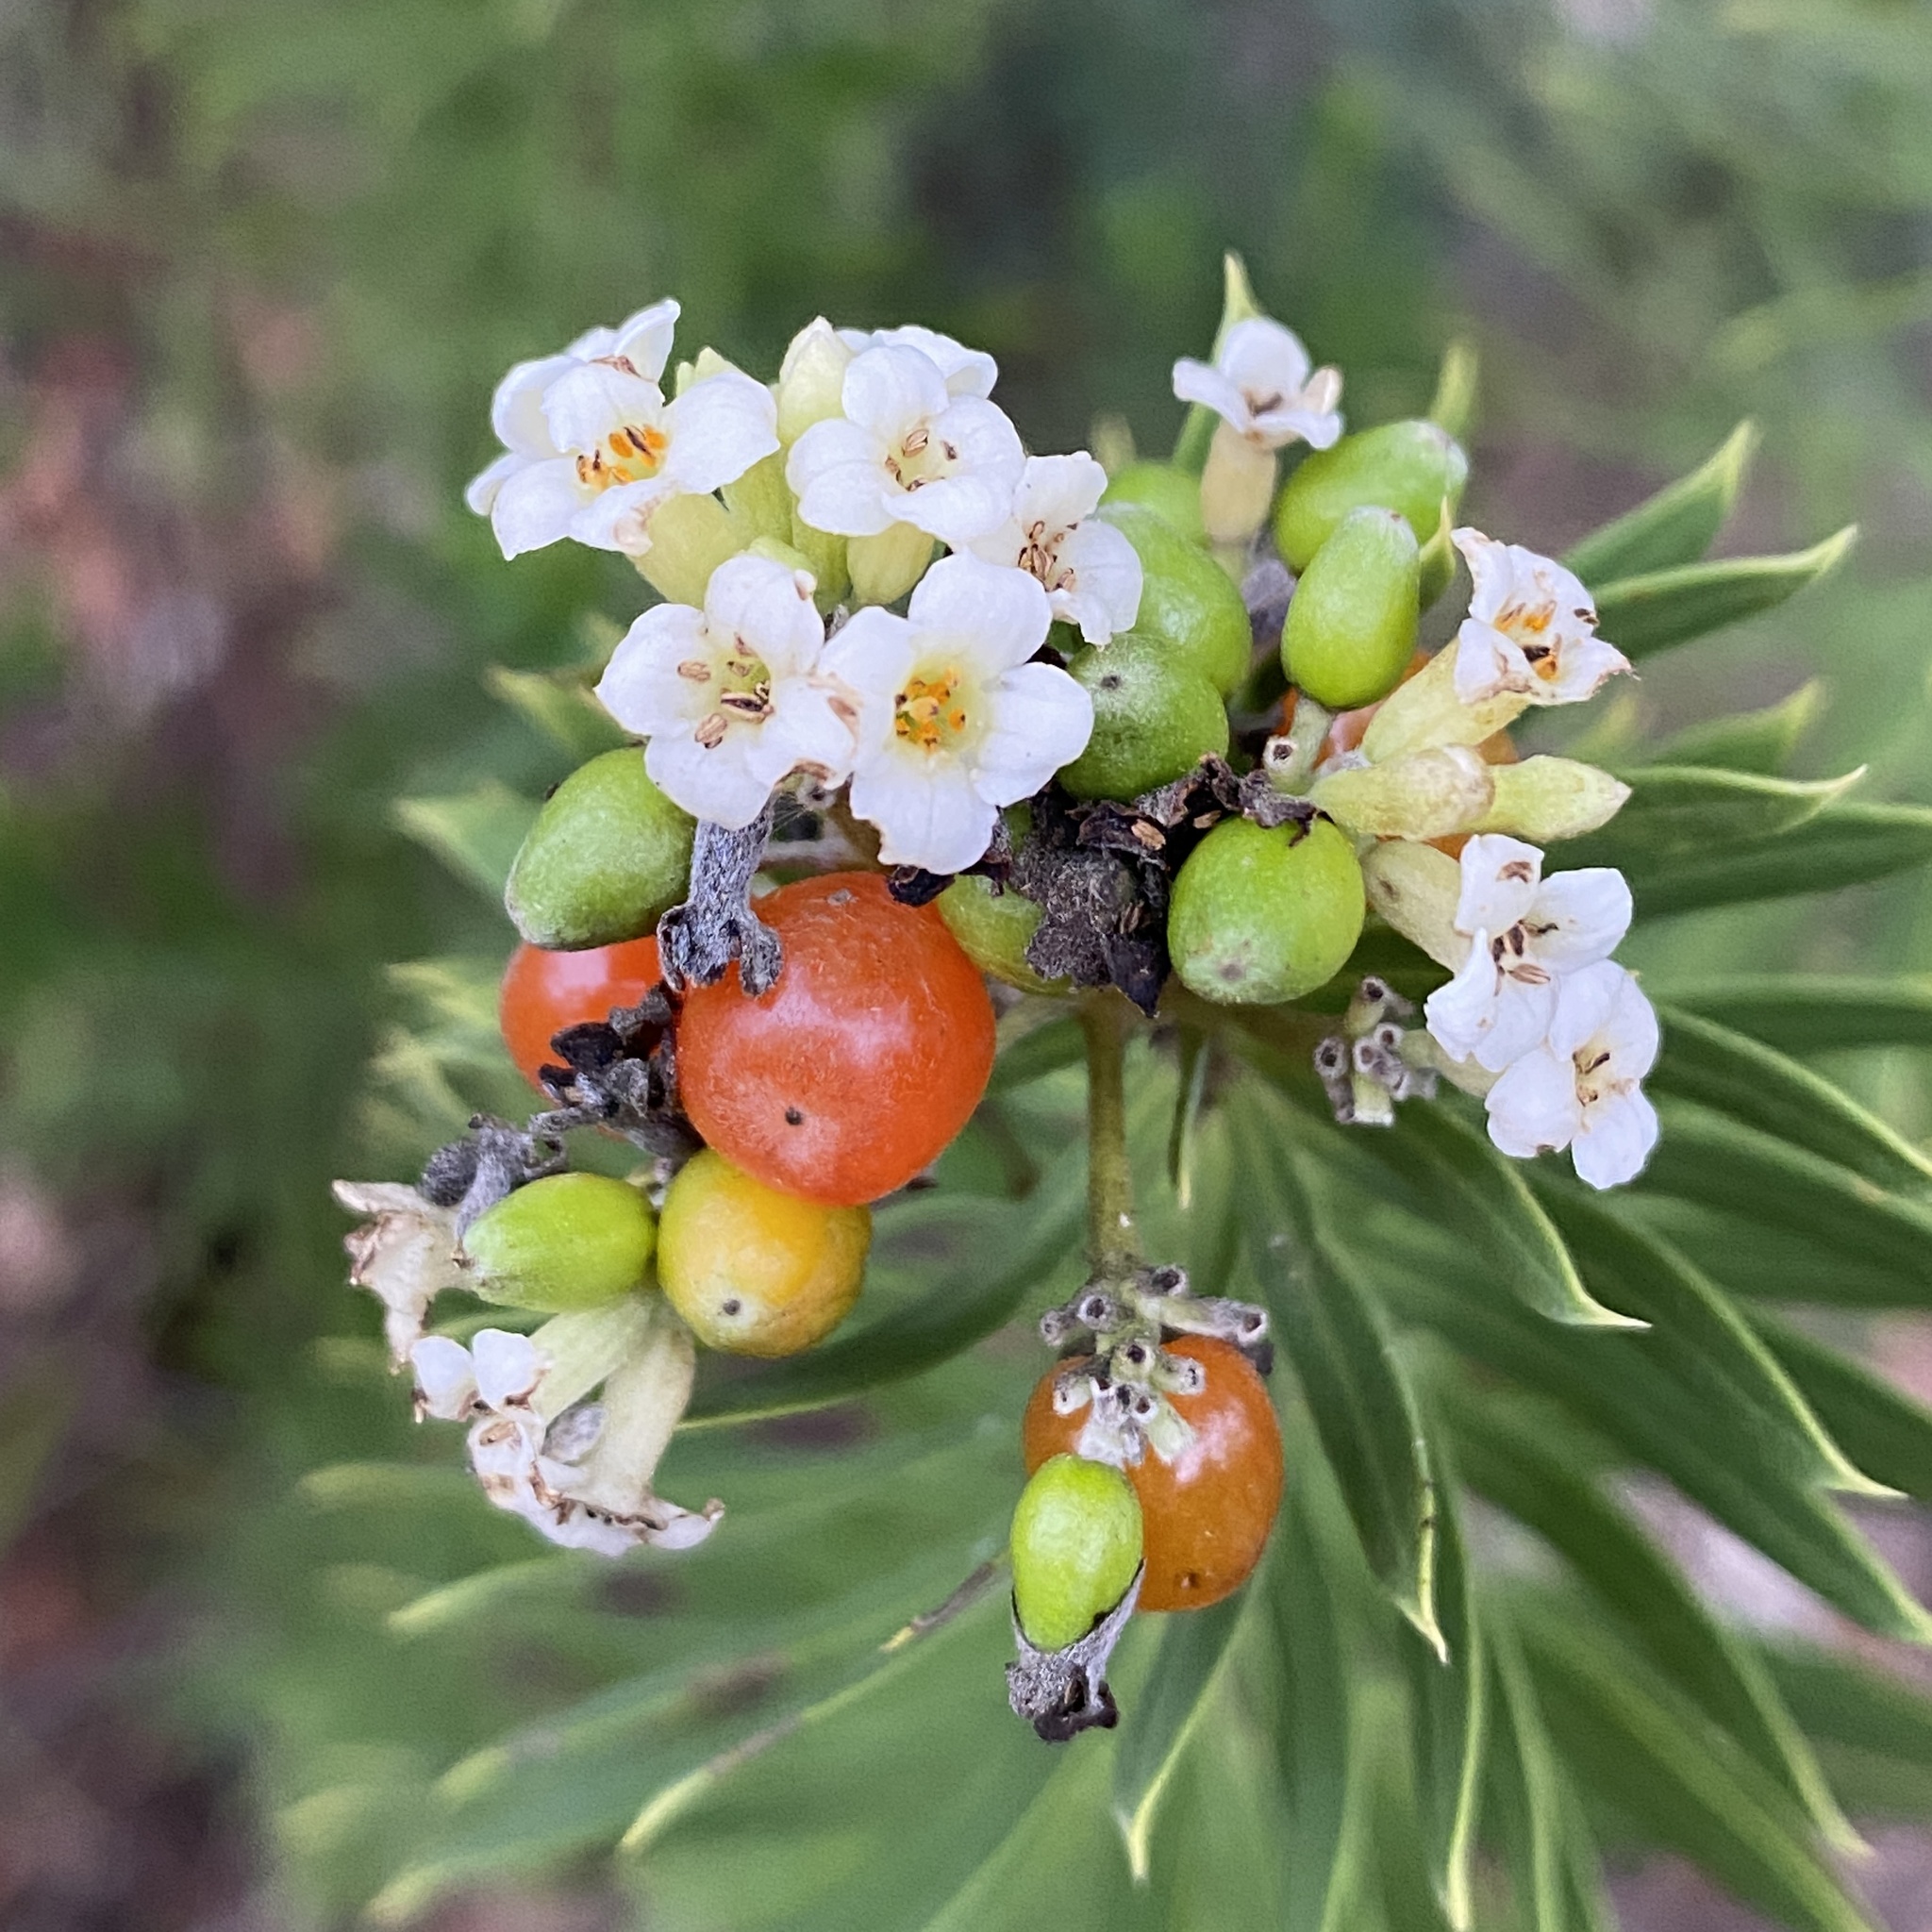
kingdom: Plantae
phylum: Tracheophyta
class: Magnoliopsida
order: Malvales
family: Thymelaeaceae
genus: Daphne
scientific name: Daphne gnidium
